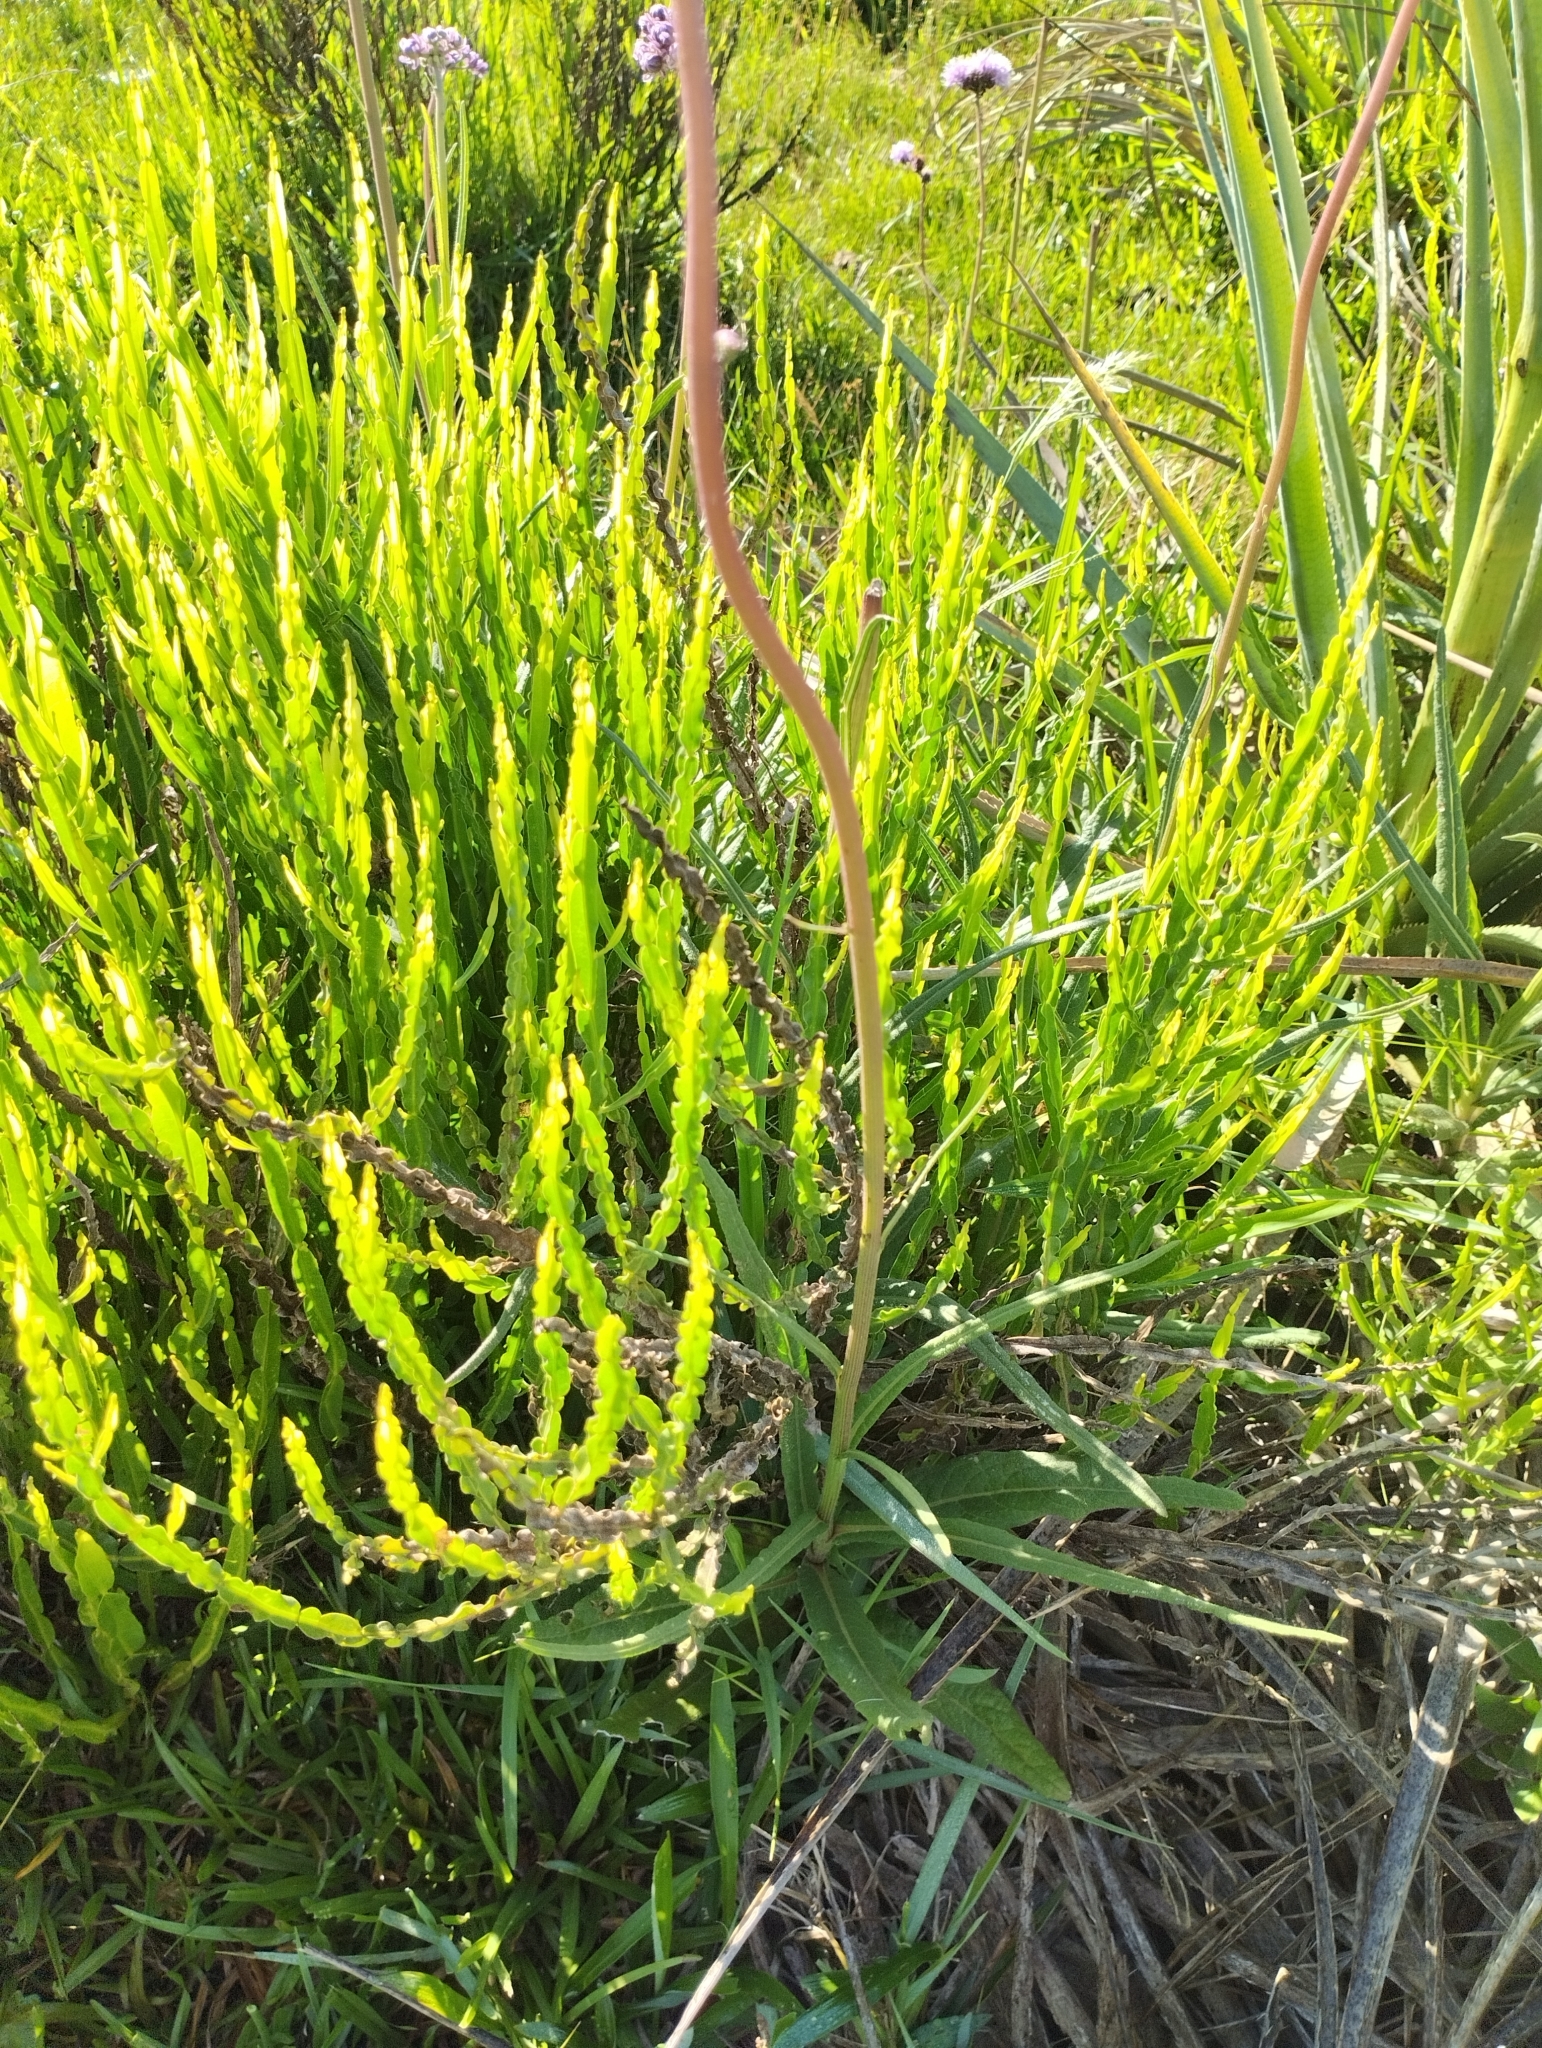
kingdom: Plantae
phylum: Tracheophyta
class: Magnoliopsida
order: Asterales
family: Asteraceae
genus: Vernonia
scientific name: Vernonia echioides
